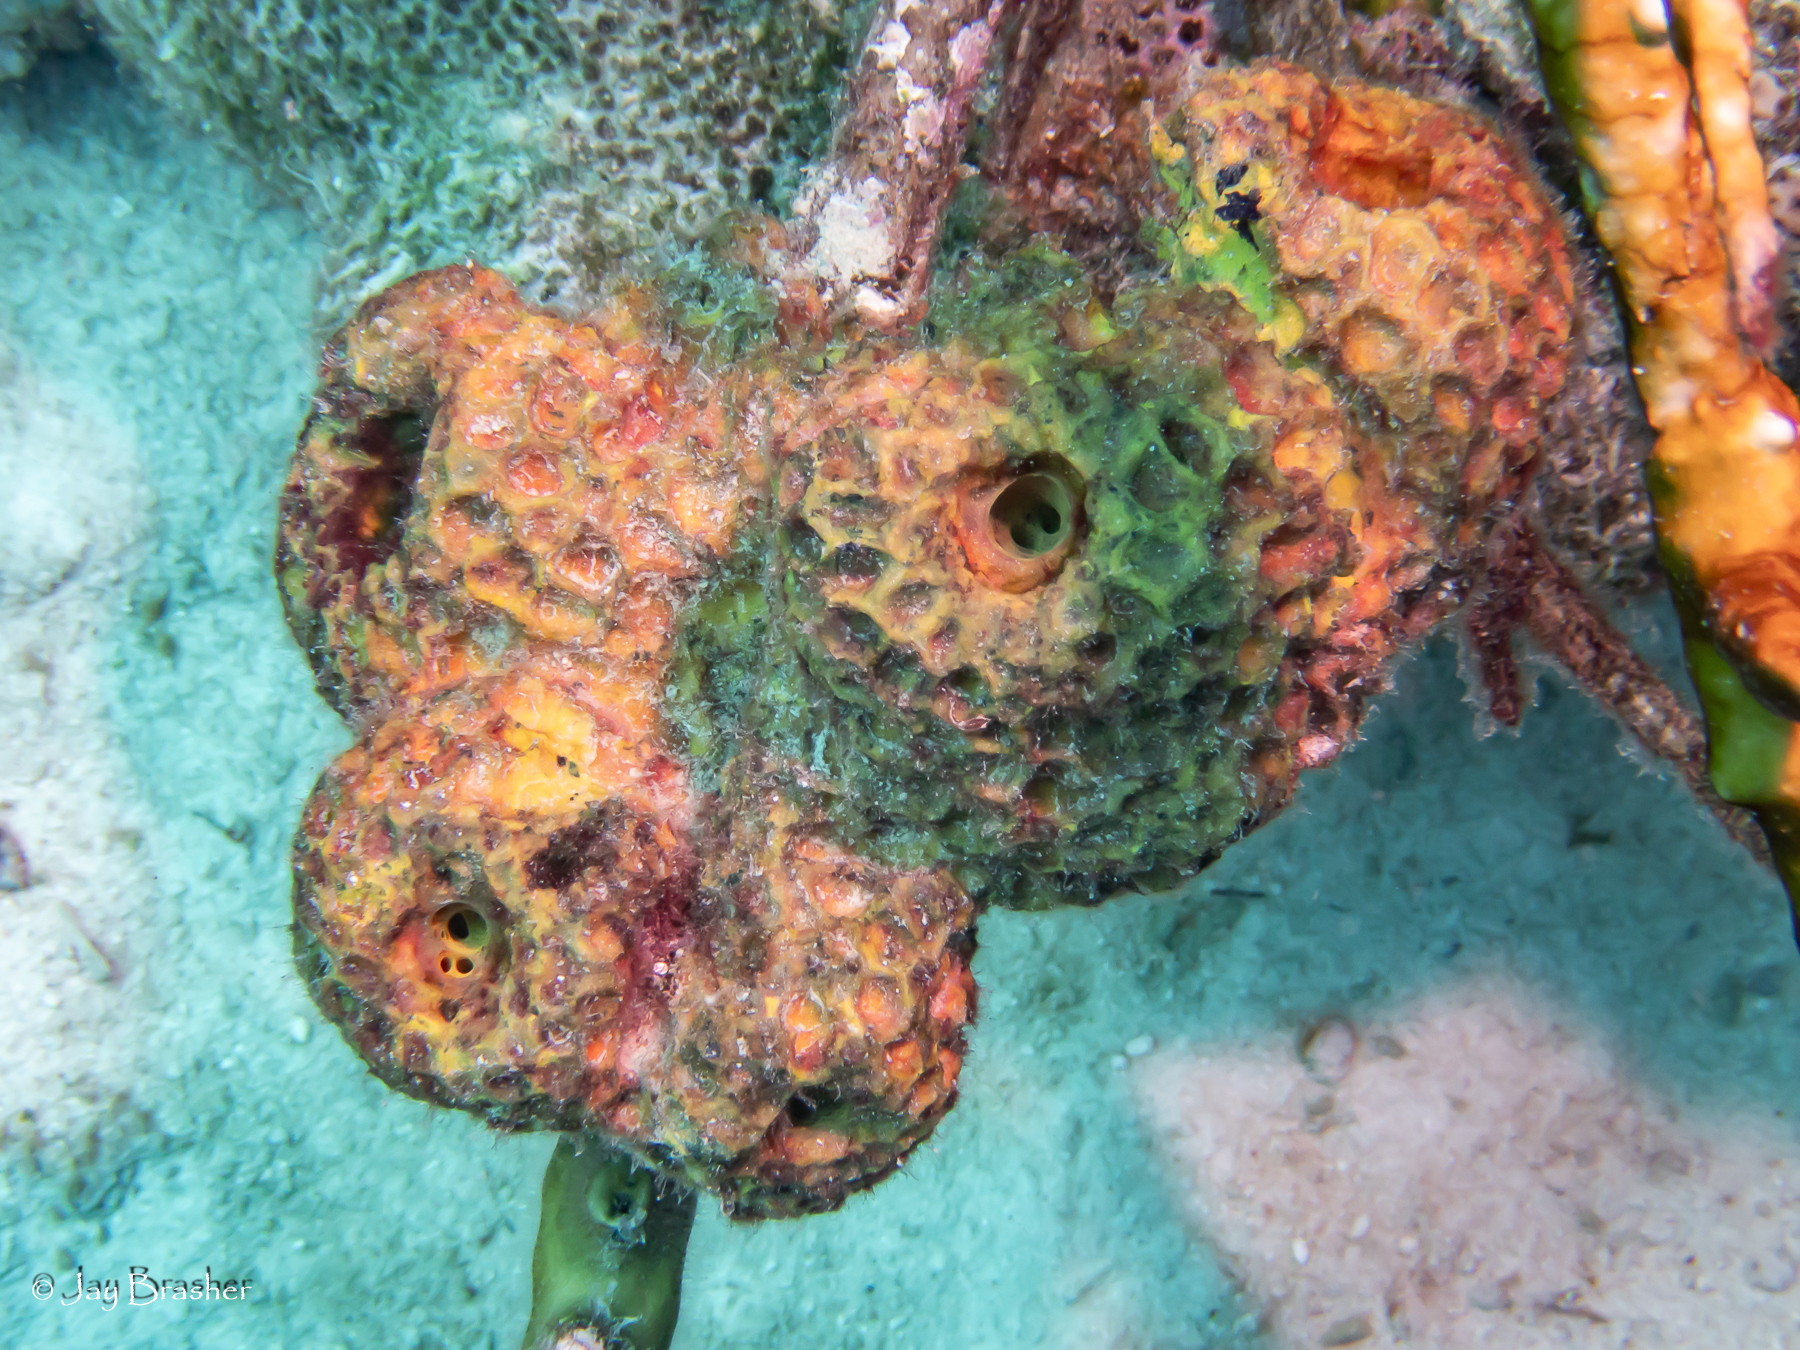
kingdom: Animalia
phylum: Porifera
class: Demospongiae
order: Verongiida
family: Aplysinidae
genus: Verongula
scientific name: Verongula rigida
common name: Pitted sponge
